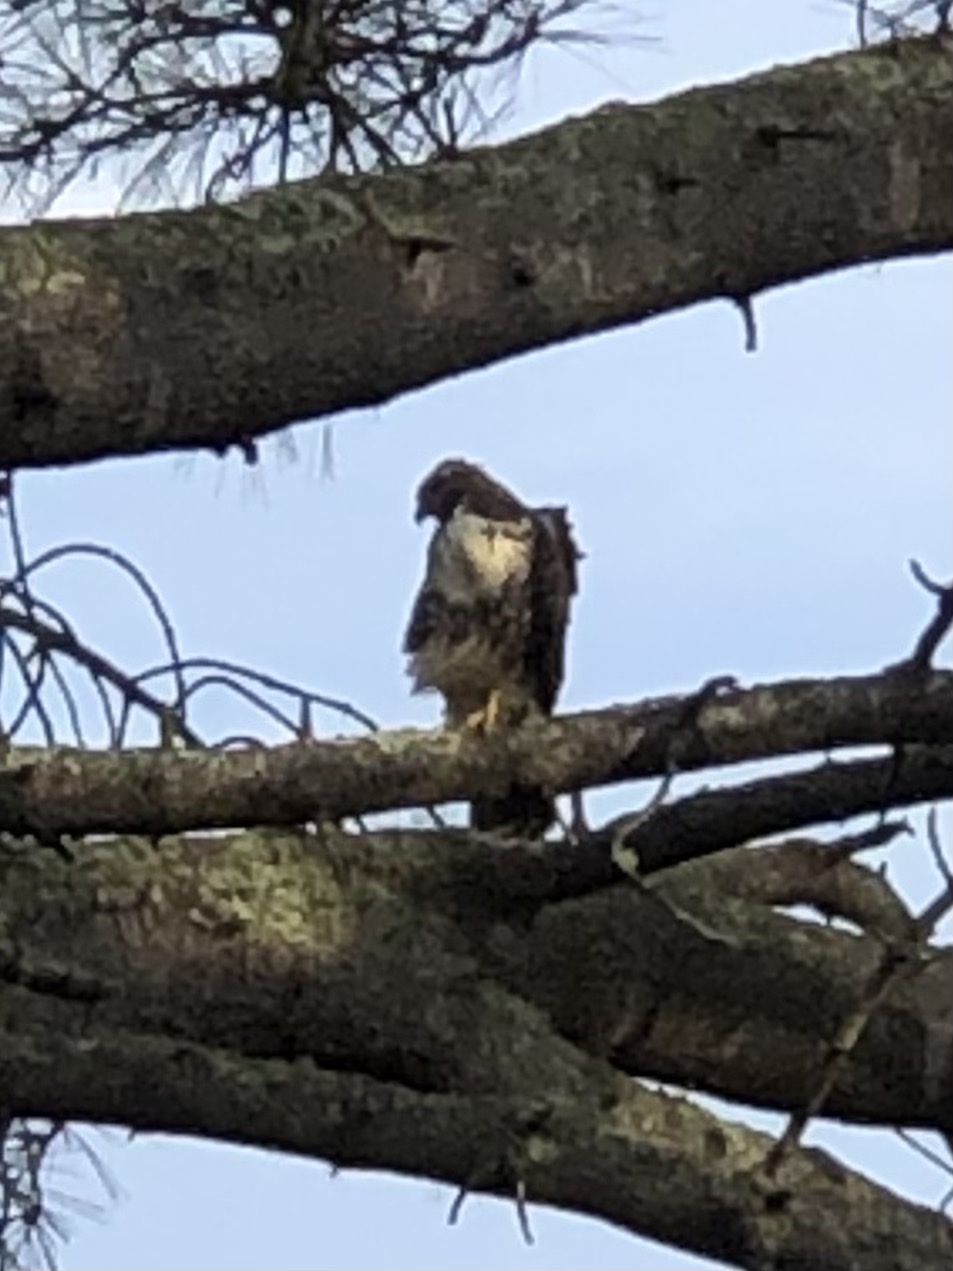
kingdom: Animalia
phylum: Chordata
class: Aves
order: Accipitriformes
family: Accipitridae
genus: Buteo
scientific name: Buteo jamaicensis
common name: Red-tailed hawk
